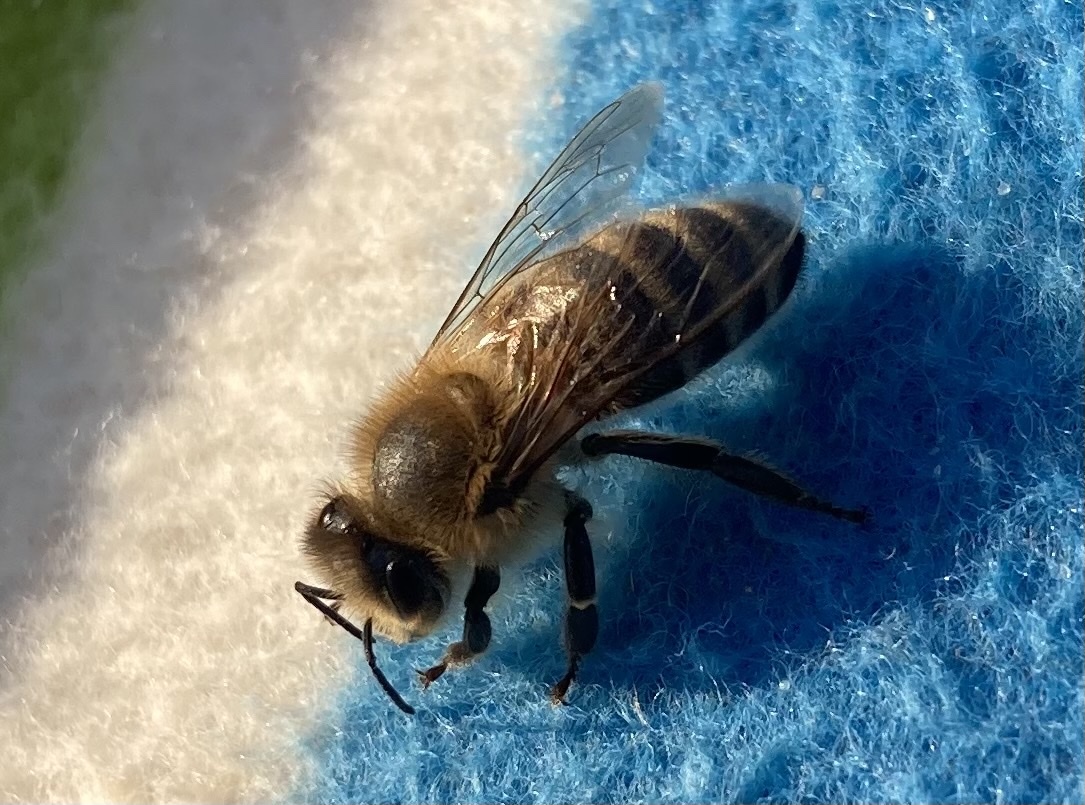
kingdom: Animalia
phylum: Arthropoda
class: Insecta
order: Hymenoptera
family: Apidae
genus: Apis
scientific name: Apis mellifera
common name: Honey bee
